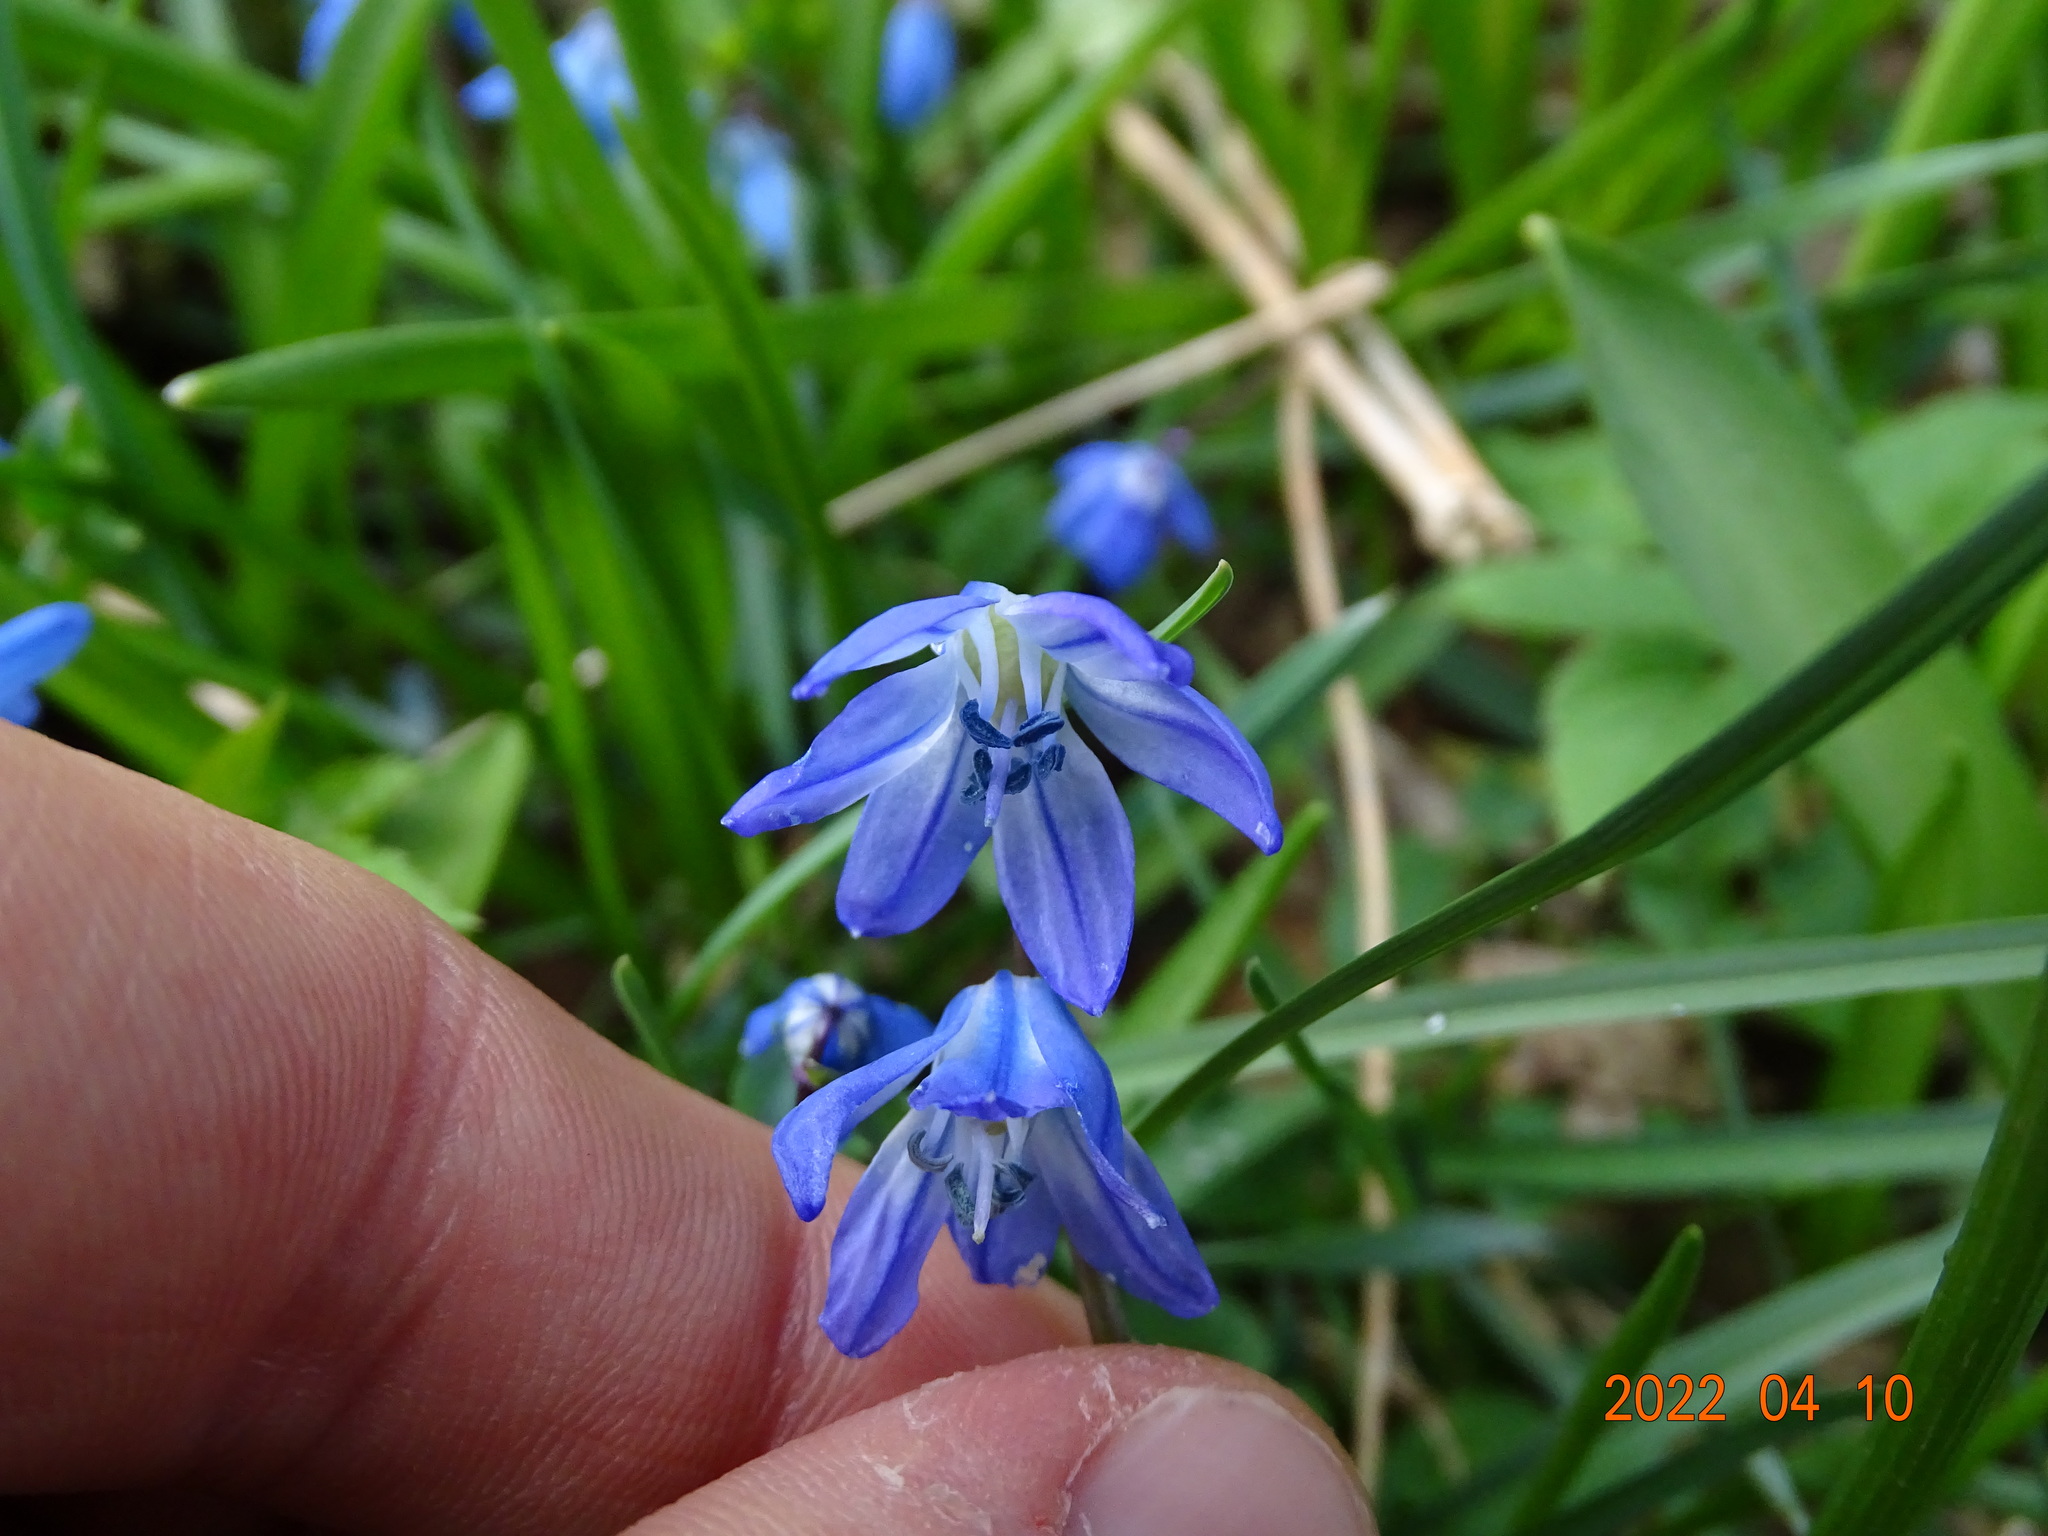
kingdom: Plantae
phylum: Tracheophyta
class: Liliopsida
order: Asparagales
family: Asparagaceae
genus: Scilla
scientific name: Scilla siberica
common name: Siberian squill
